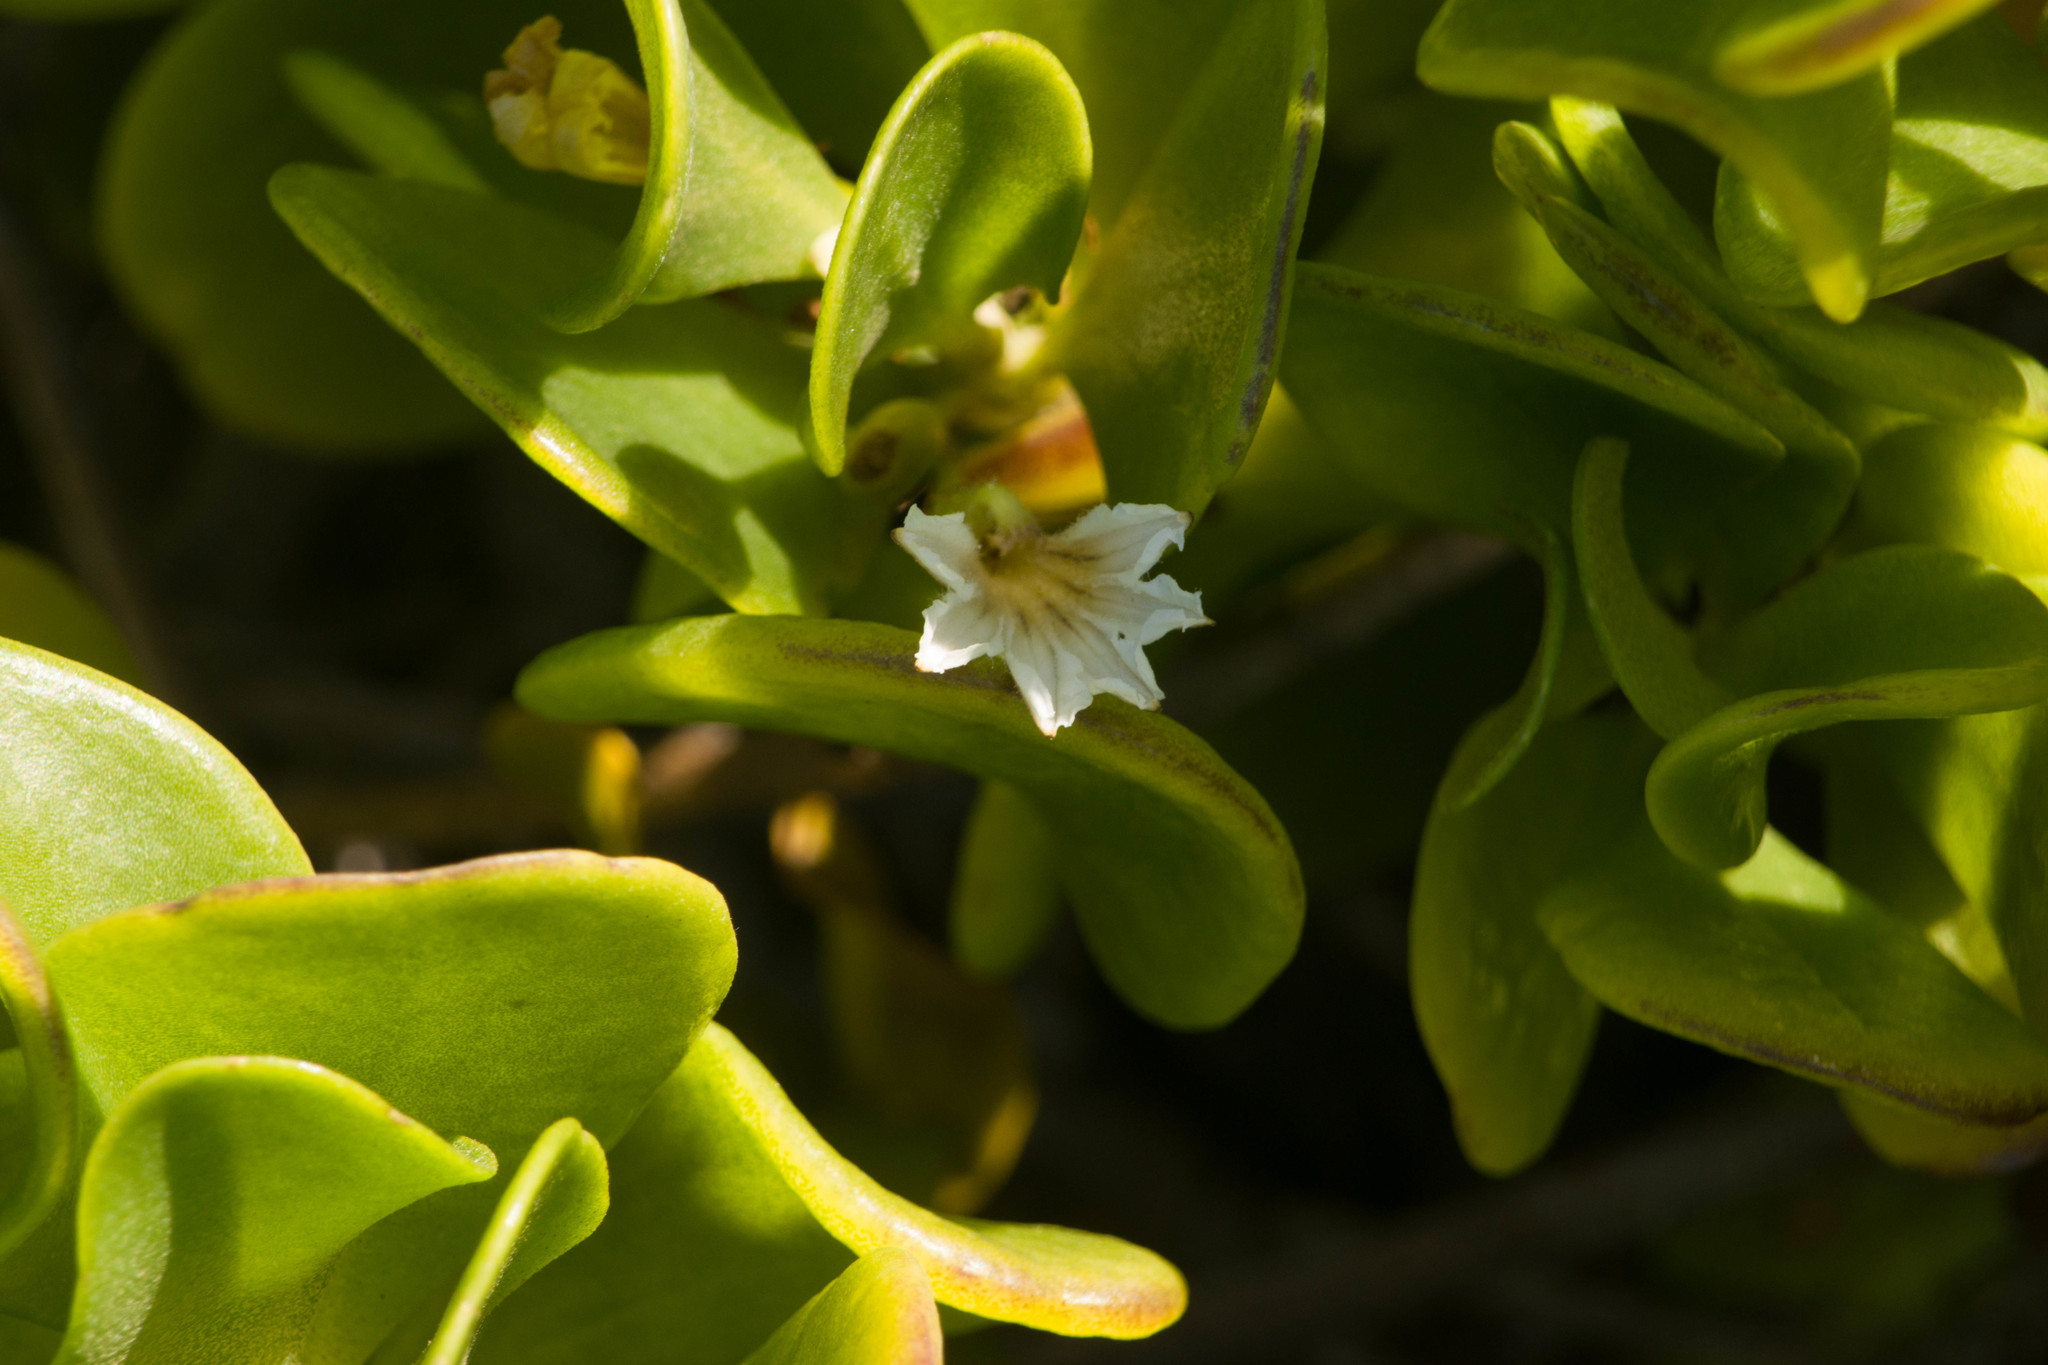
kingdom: Plantae
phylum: Tracheophyta
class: Magnoliopsida
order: Asterales
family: Goodeniaceae
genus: Scaevola
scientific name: Scaevola coriacea
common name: Dwarf naupaka
